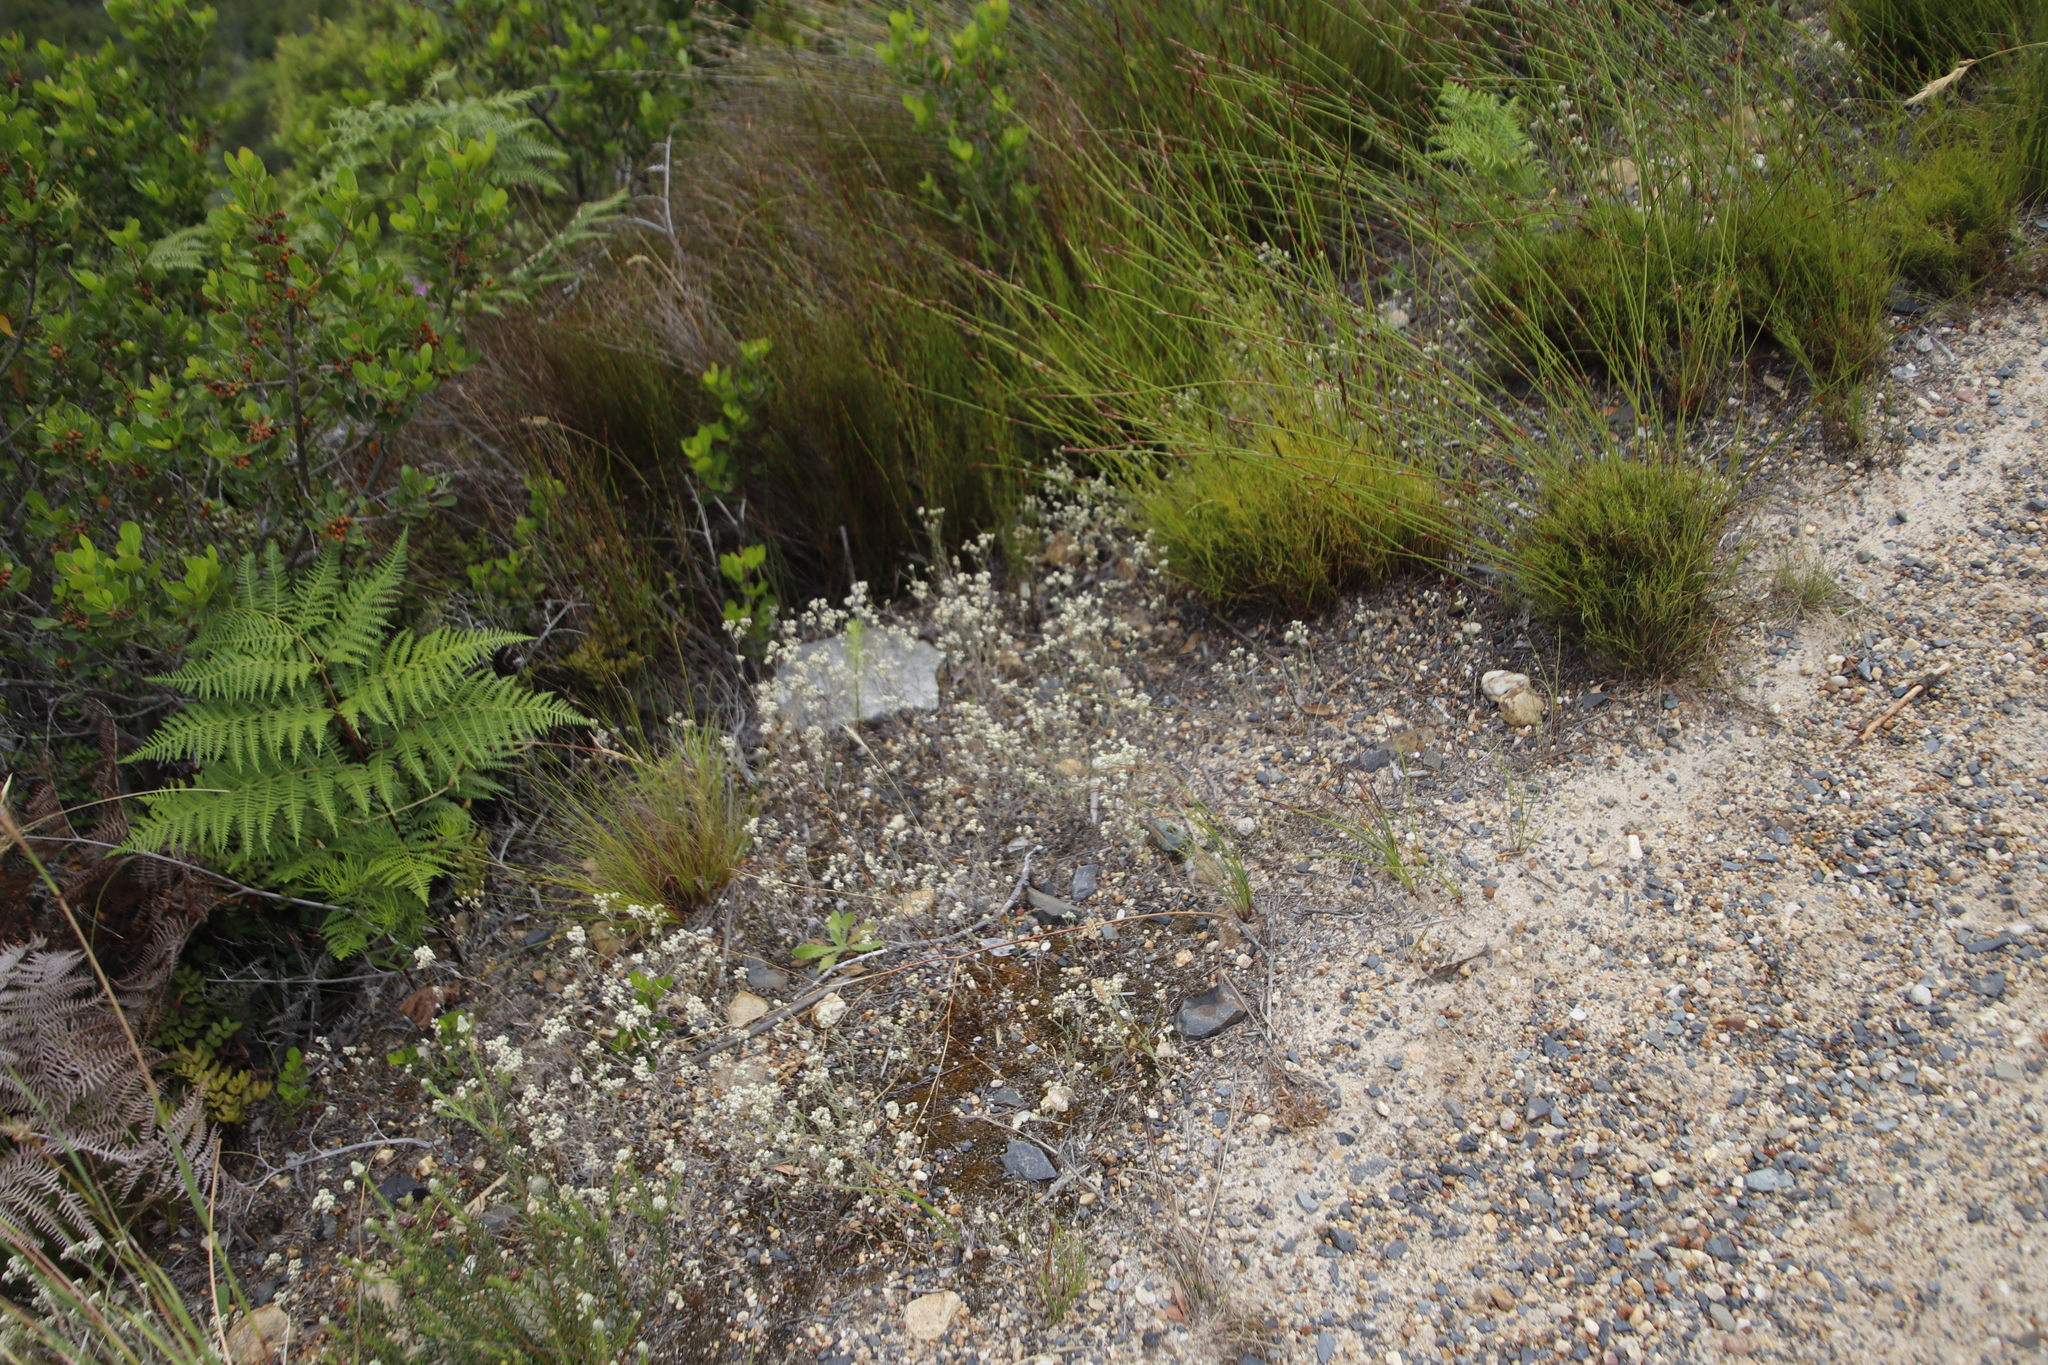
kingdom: Plantae
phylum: Tracheophyta
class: Magnoliopsida
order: Asterales
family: Asteraceae
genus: Helichrysum
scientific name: Helichrysum indicum
